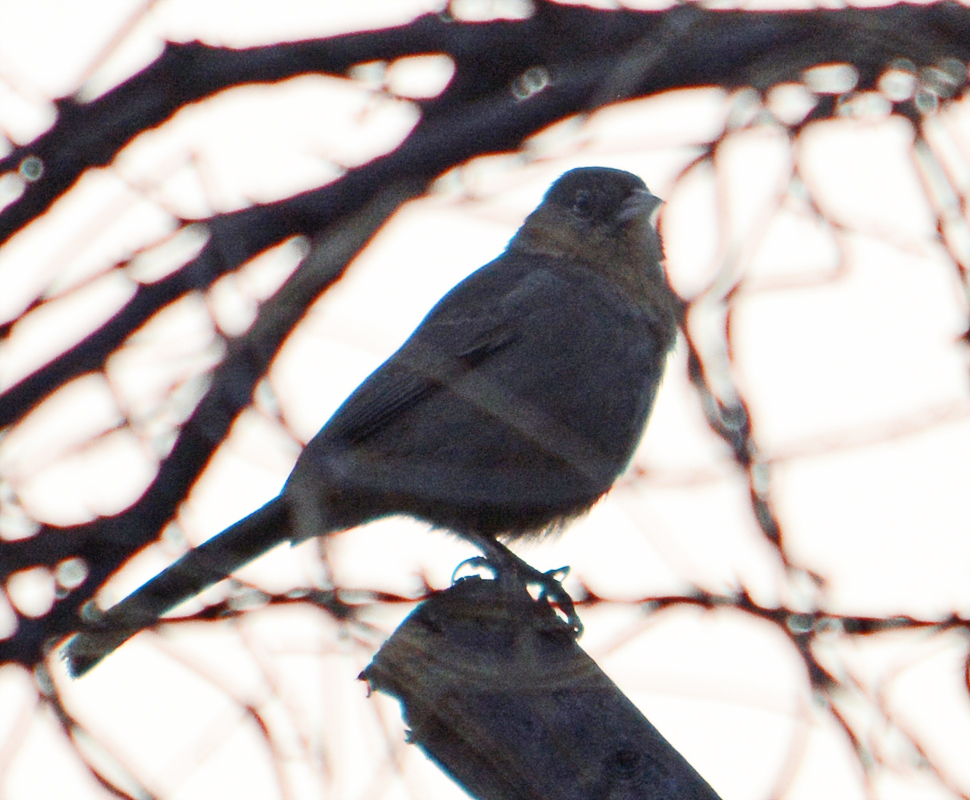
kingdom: Animalia
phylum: Chordata
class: Aves
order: Passeriformes
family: Passerellidae
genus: Melozone
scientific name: Melozone fusca
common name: Canyon towhee
